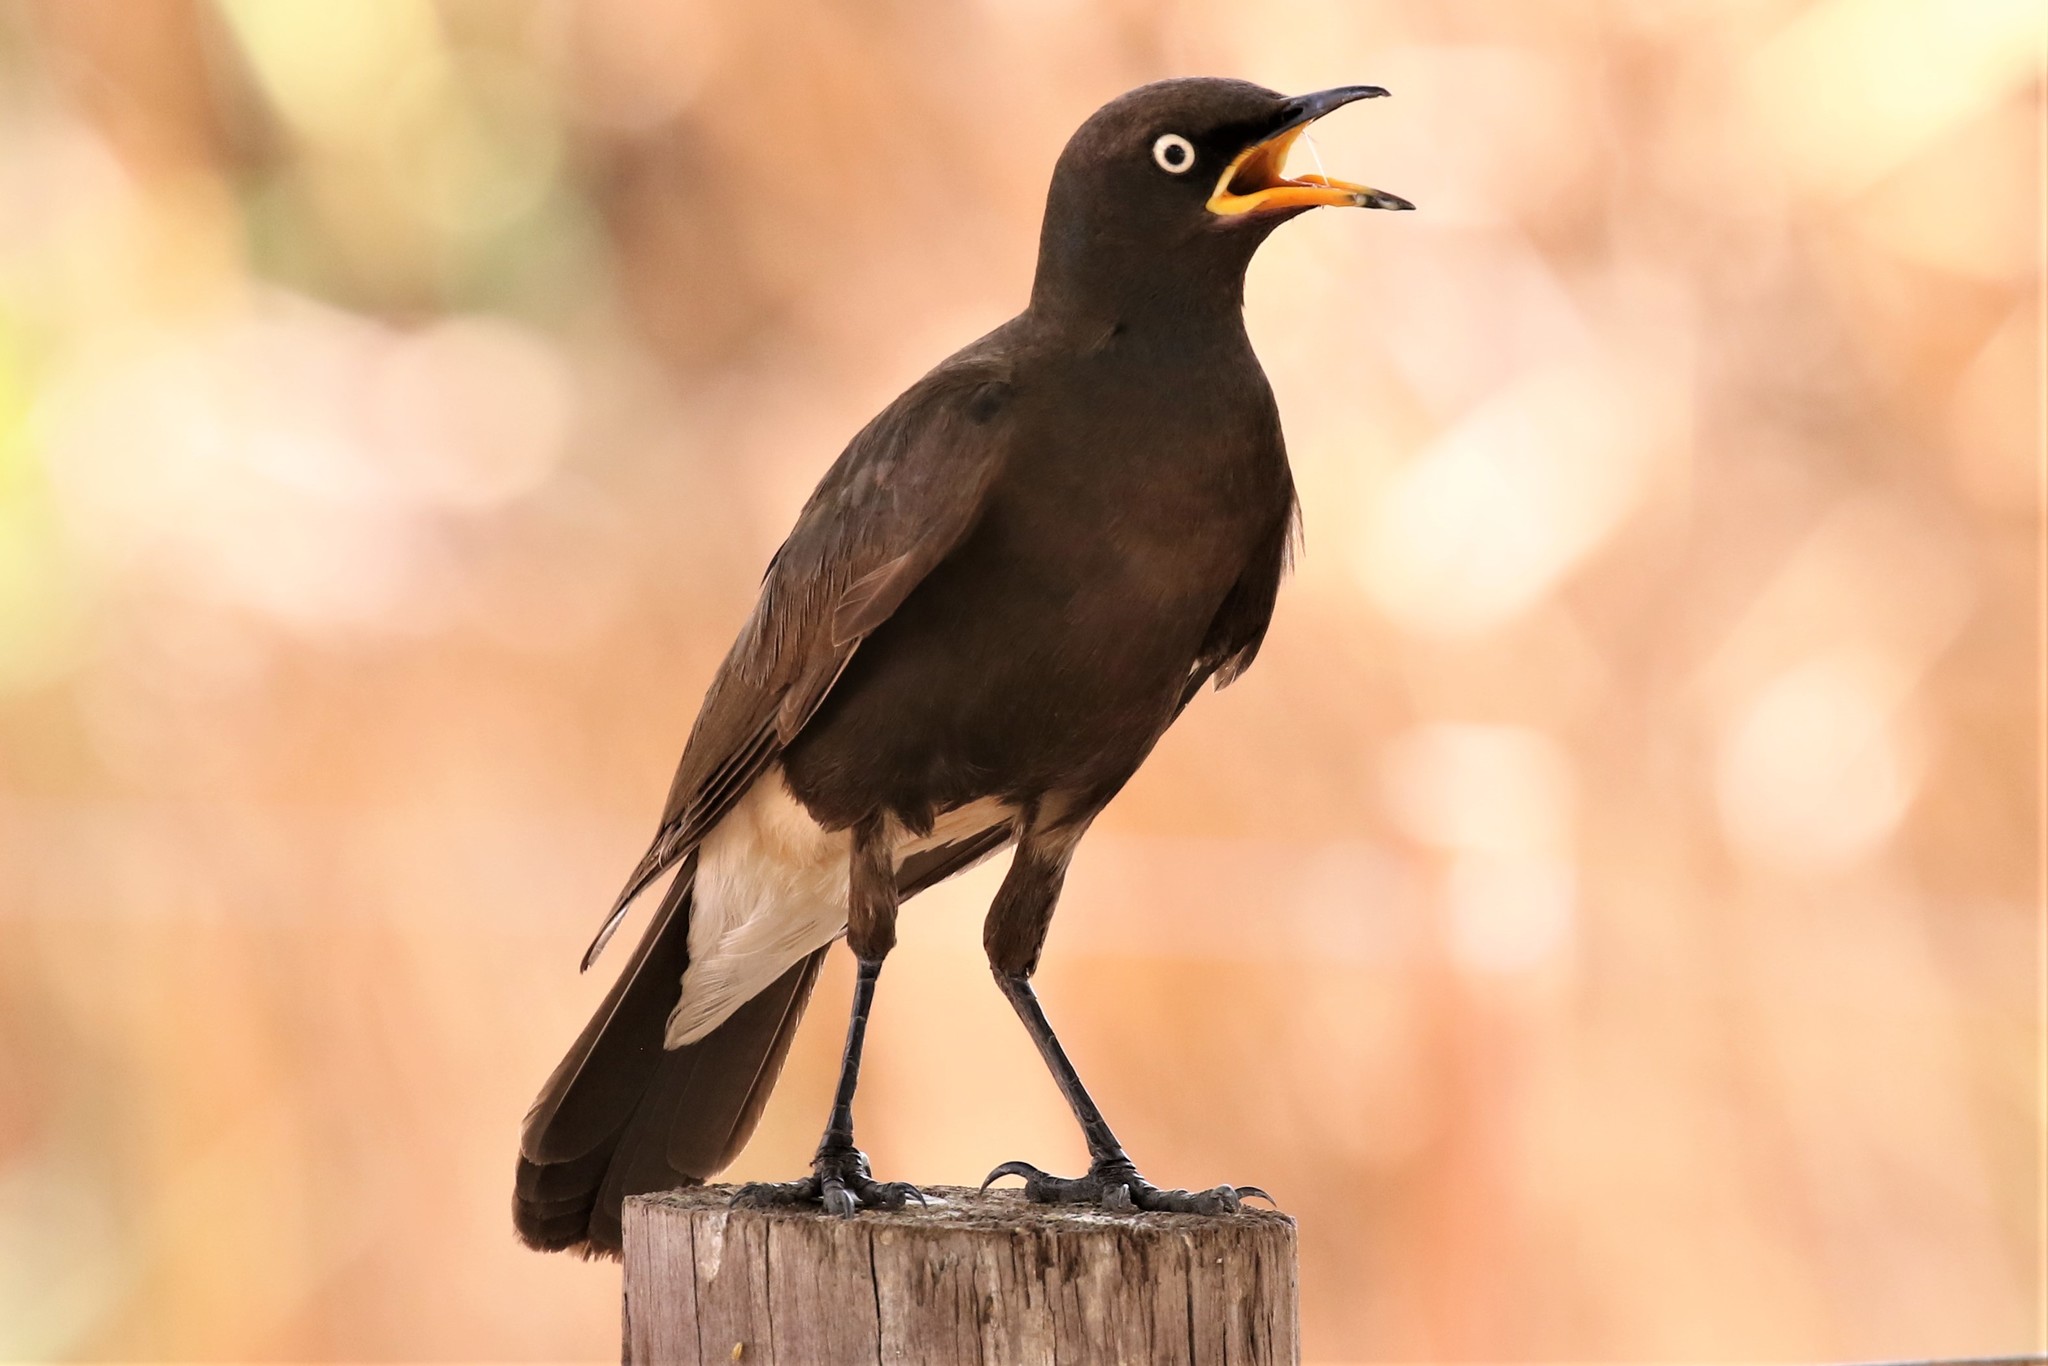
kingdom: Animalia
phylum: Chordata
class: Aves
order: Passeriformes
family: Sturnidae
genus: Lamprotornis
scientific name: Lamprotornis bicolor
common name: Pied starling
